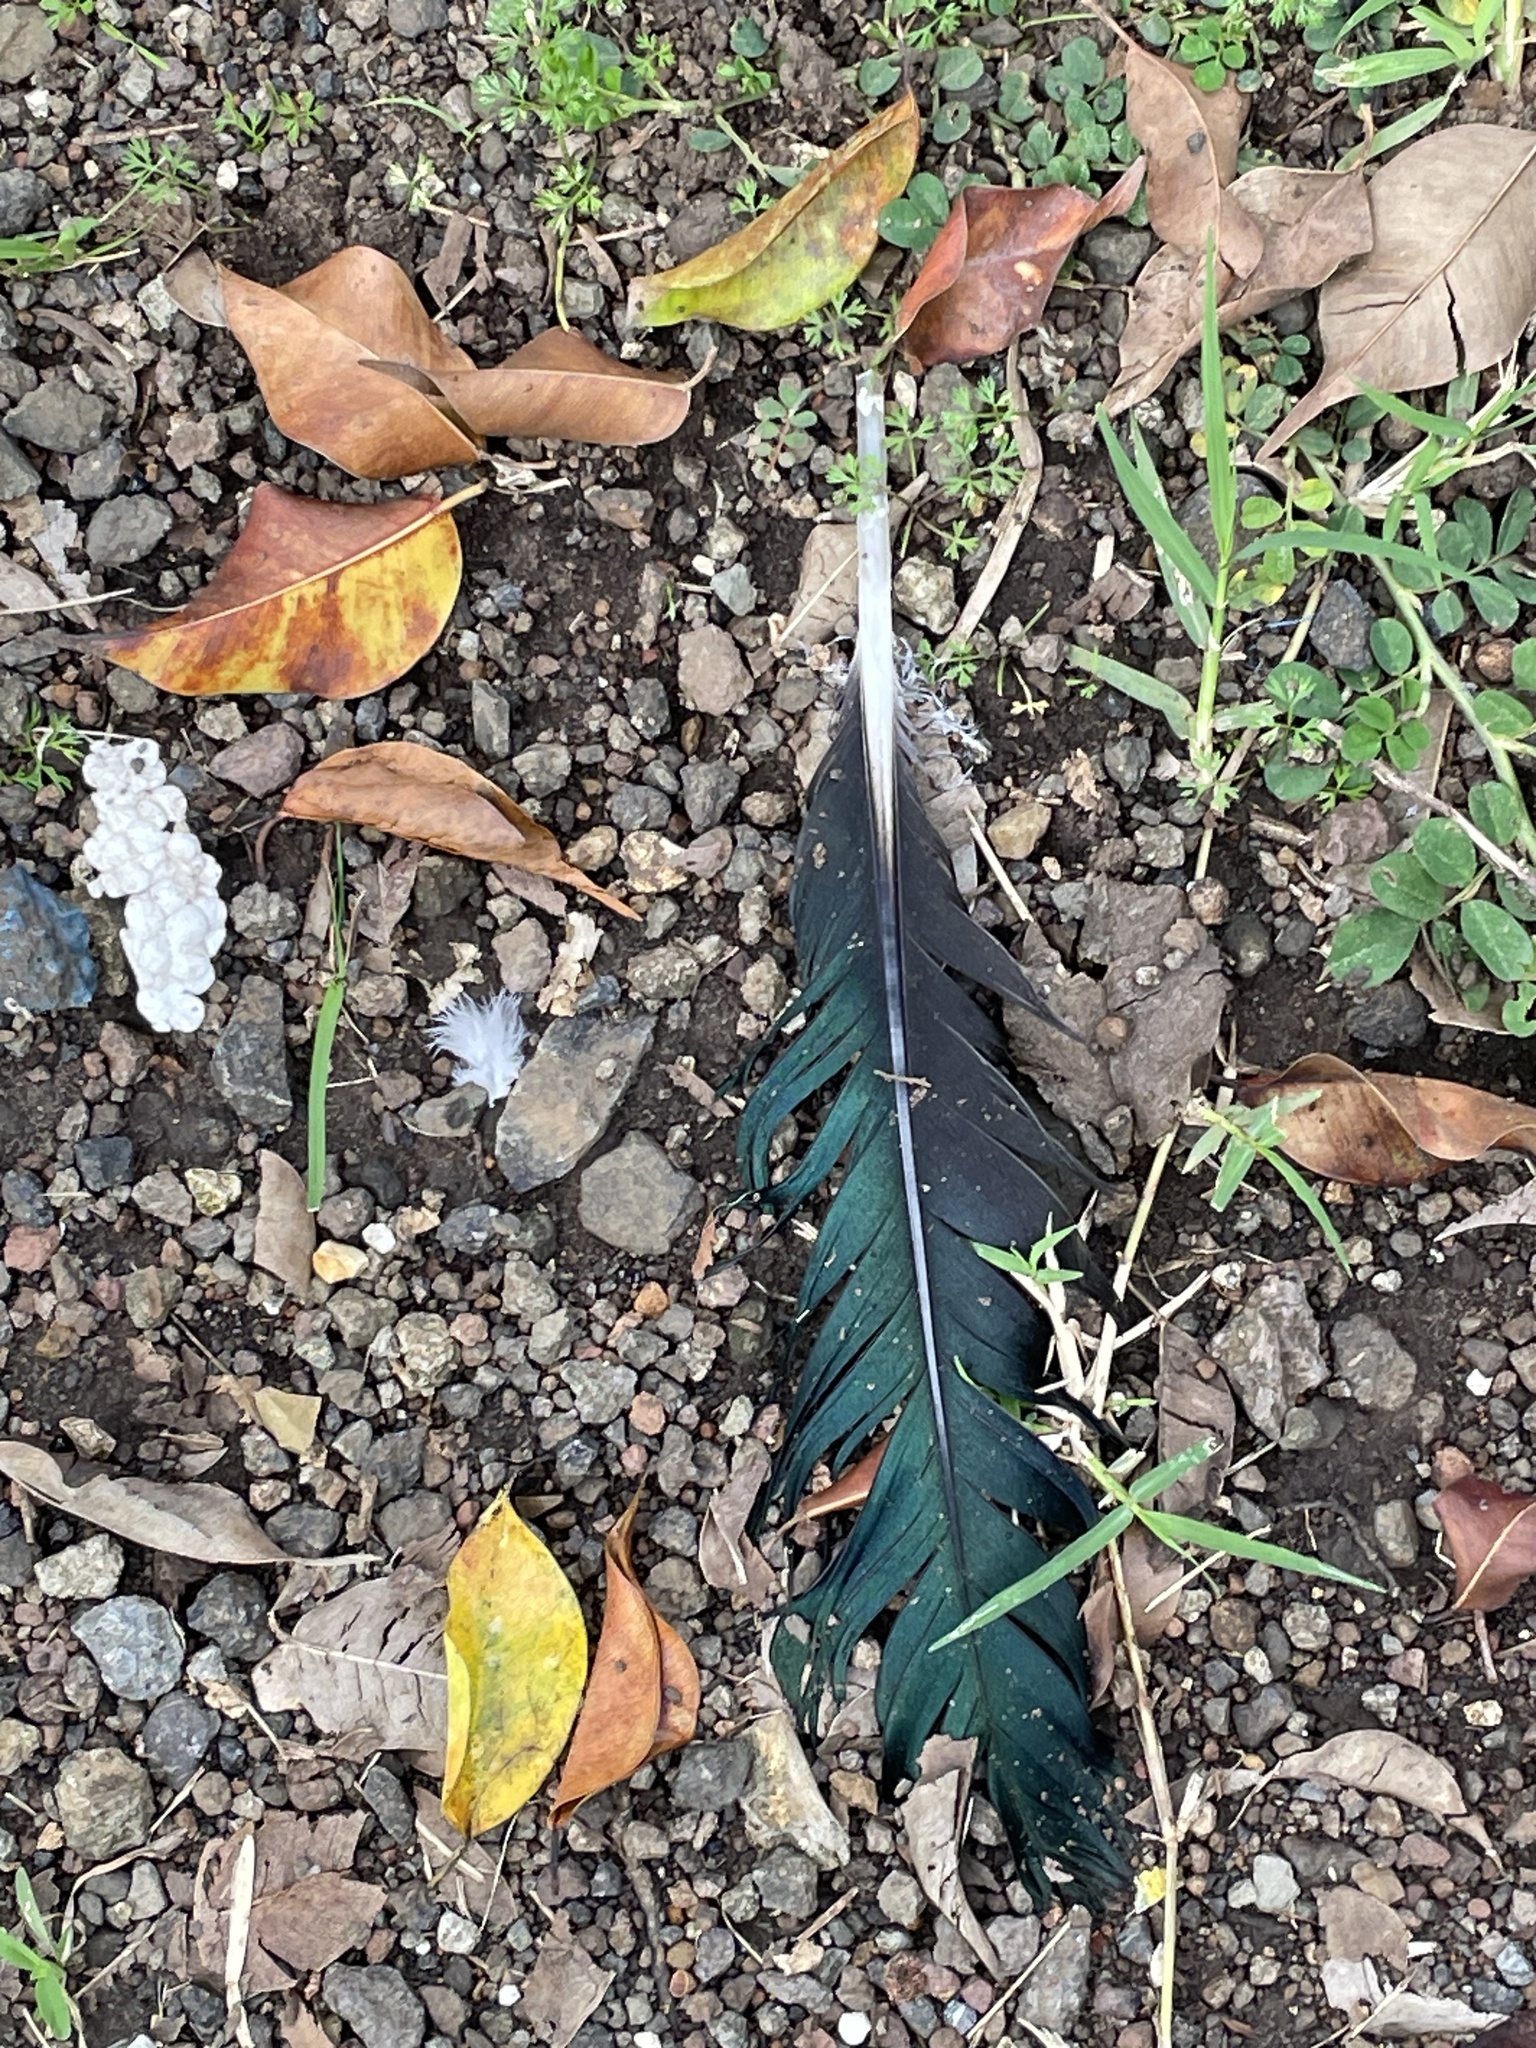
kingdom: Animalia
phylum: Chordata
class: Aves
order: Anseriformes
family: Anatidae
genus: Cairina
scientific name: Cairina moschata
